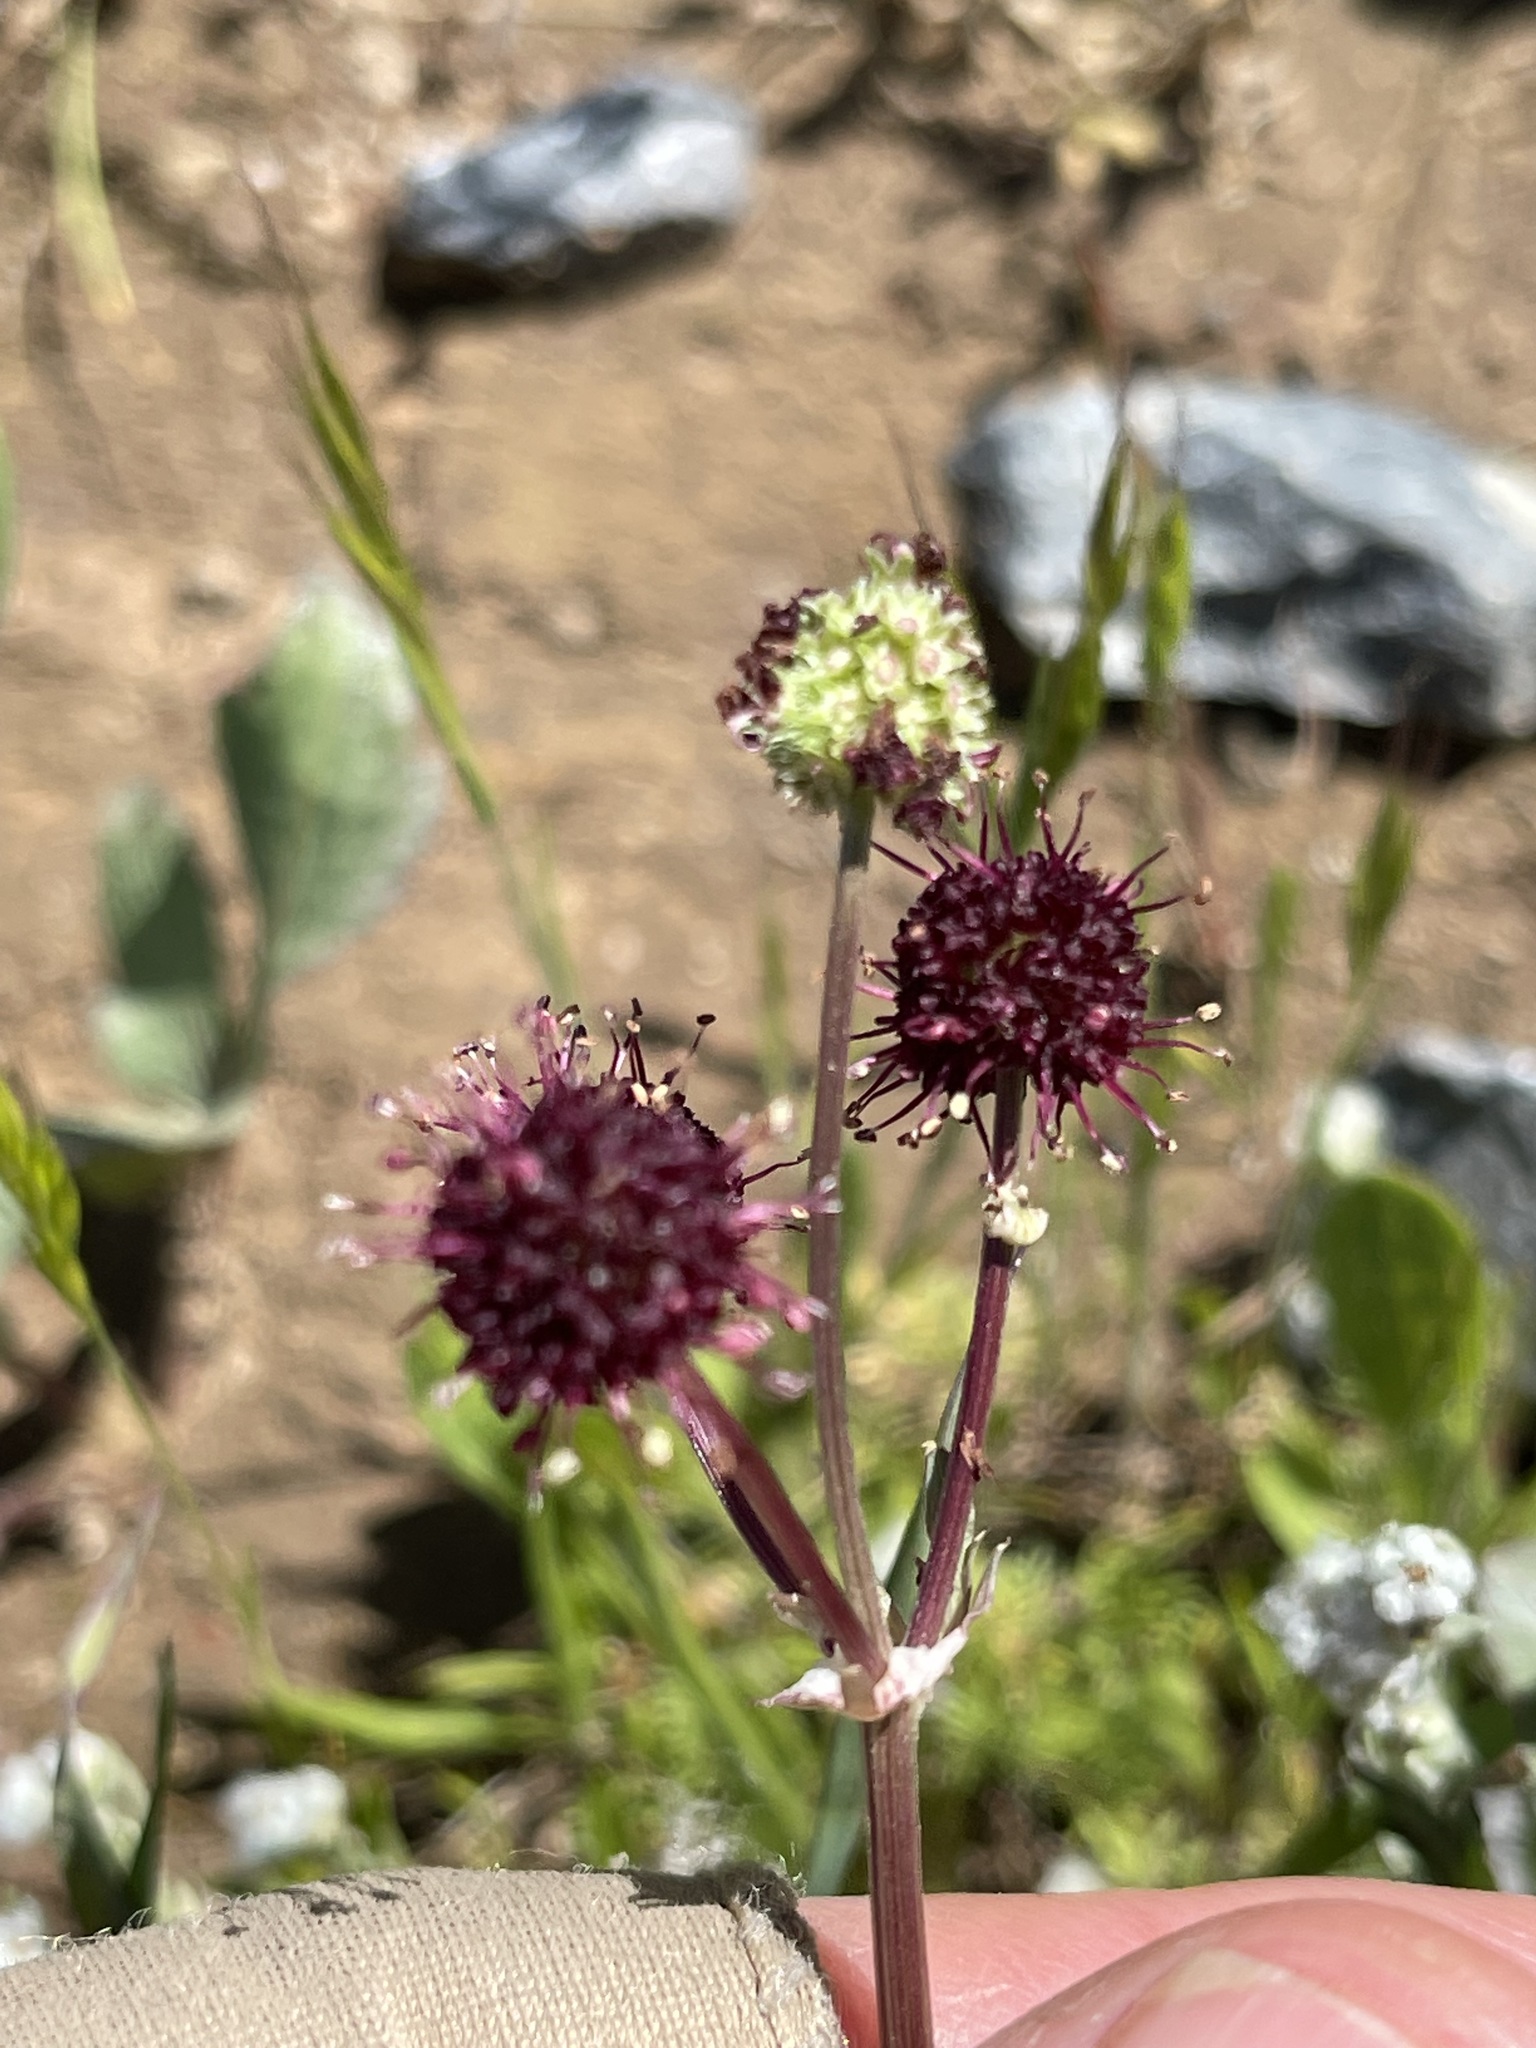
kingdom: Plantae
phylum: Tracheophyta
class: Magnoliopsida
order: Apiales
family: Apiaceae
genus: Sanicula
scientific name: Sanicula bipinnatifida
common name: Shoe-buttons
